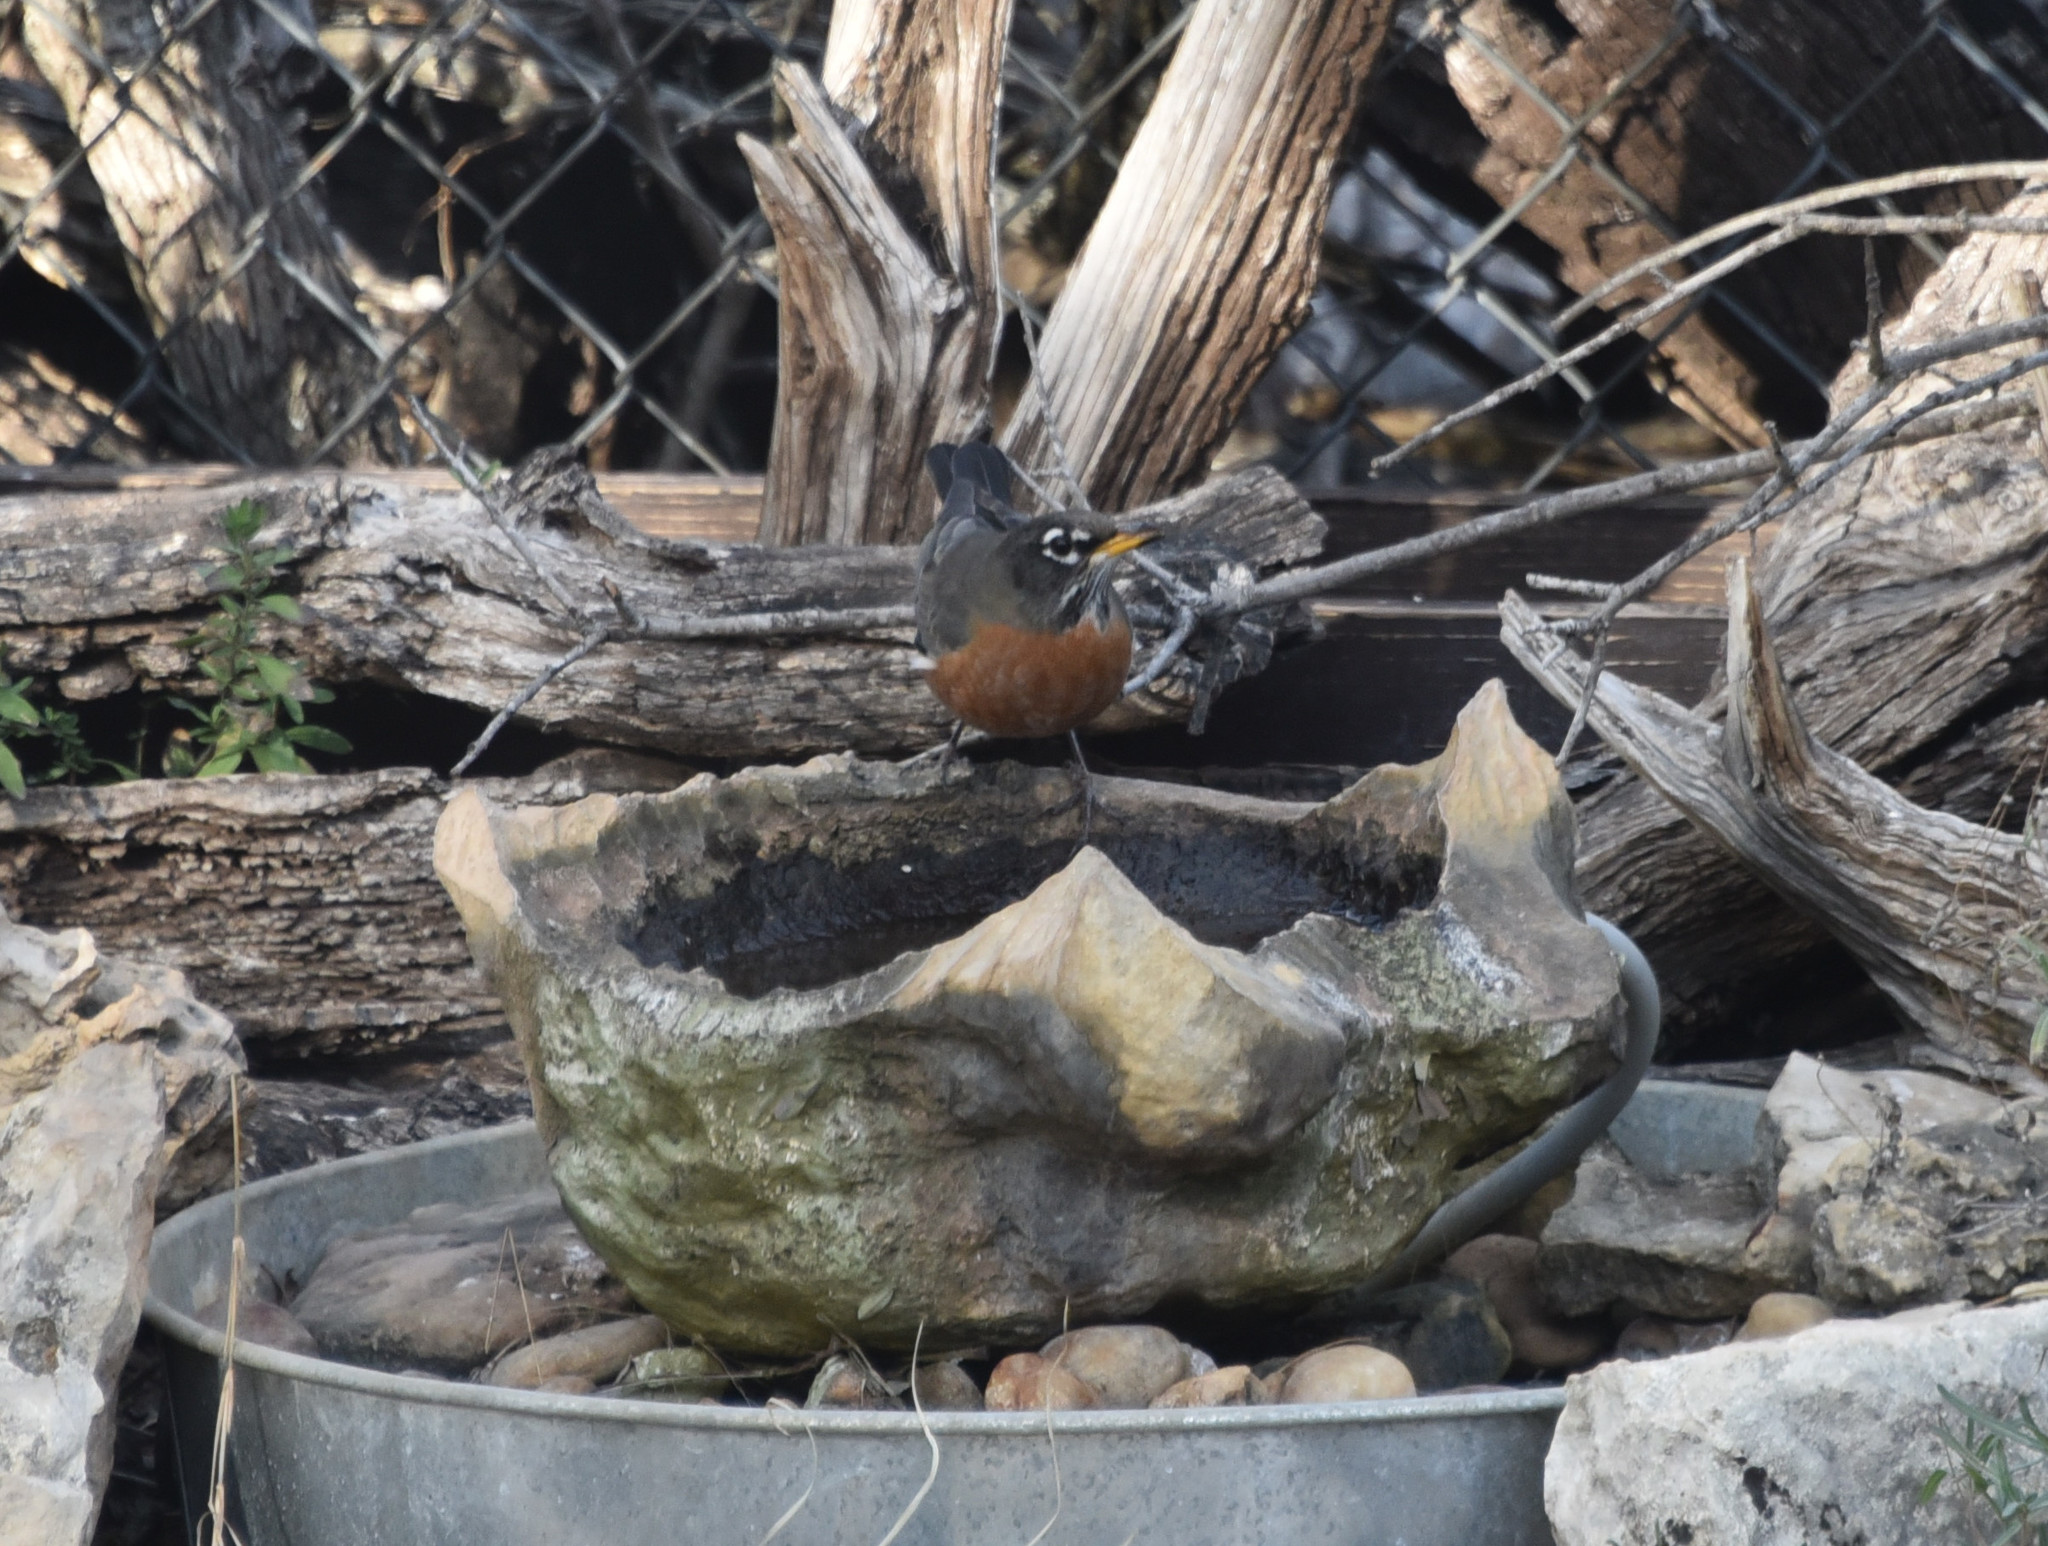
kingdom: Animalia
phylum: Chordata
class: Aves
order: Passeriformes
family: Turdidae
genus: Turdus
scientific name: Turdus migratorius
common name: American robin
